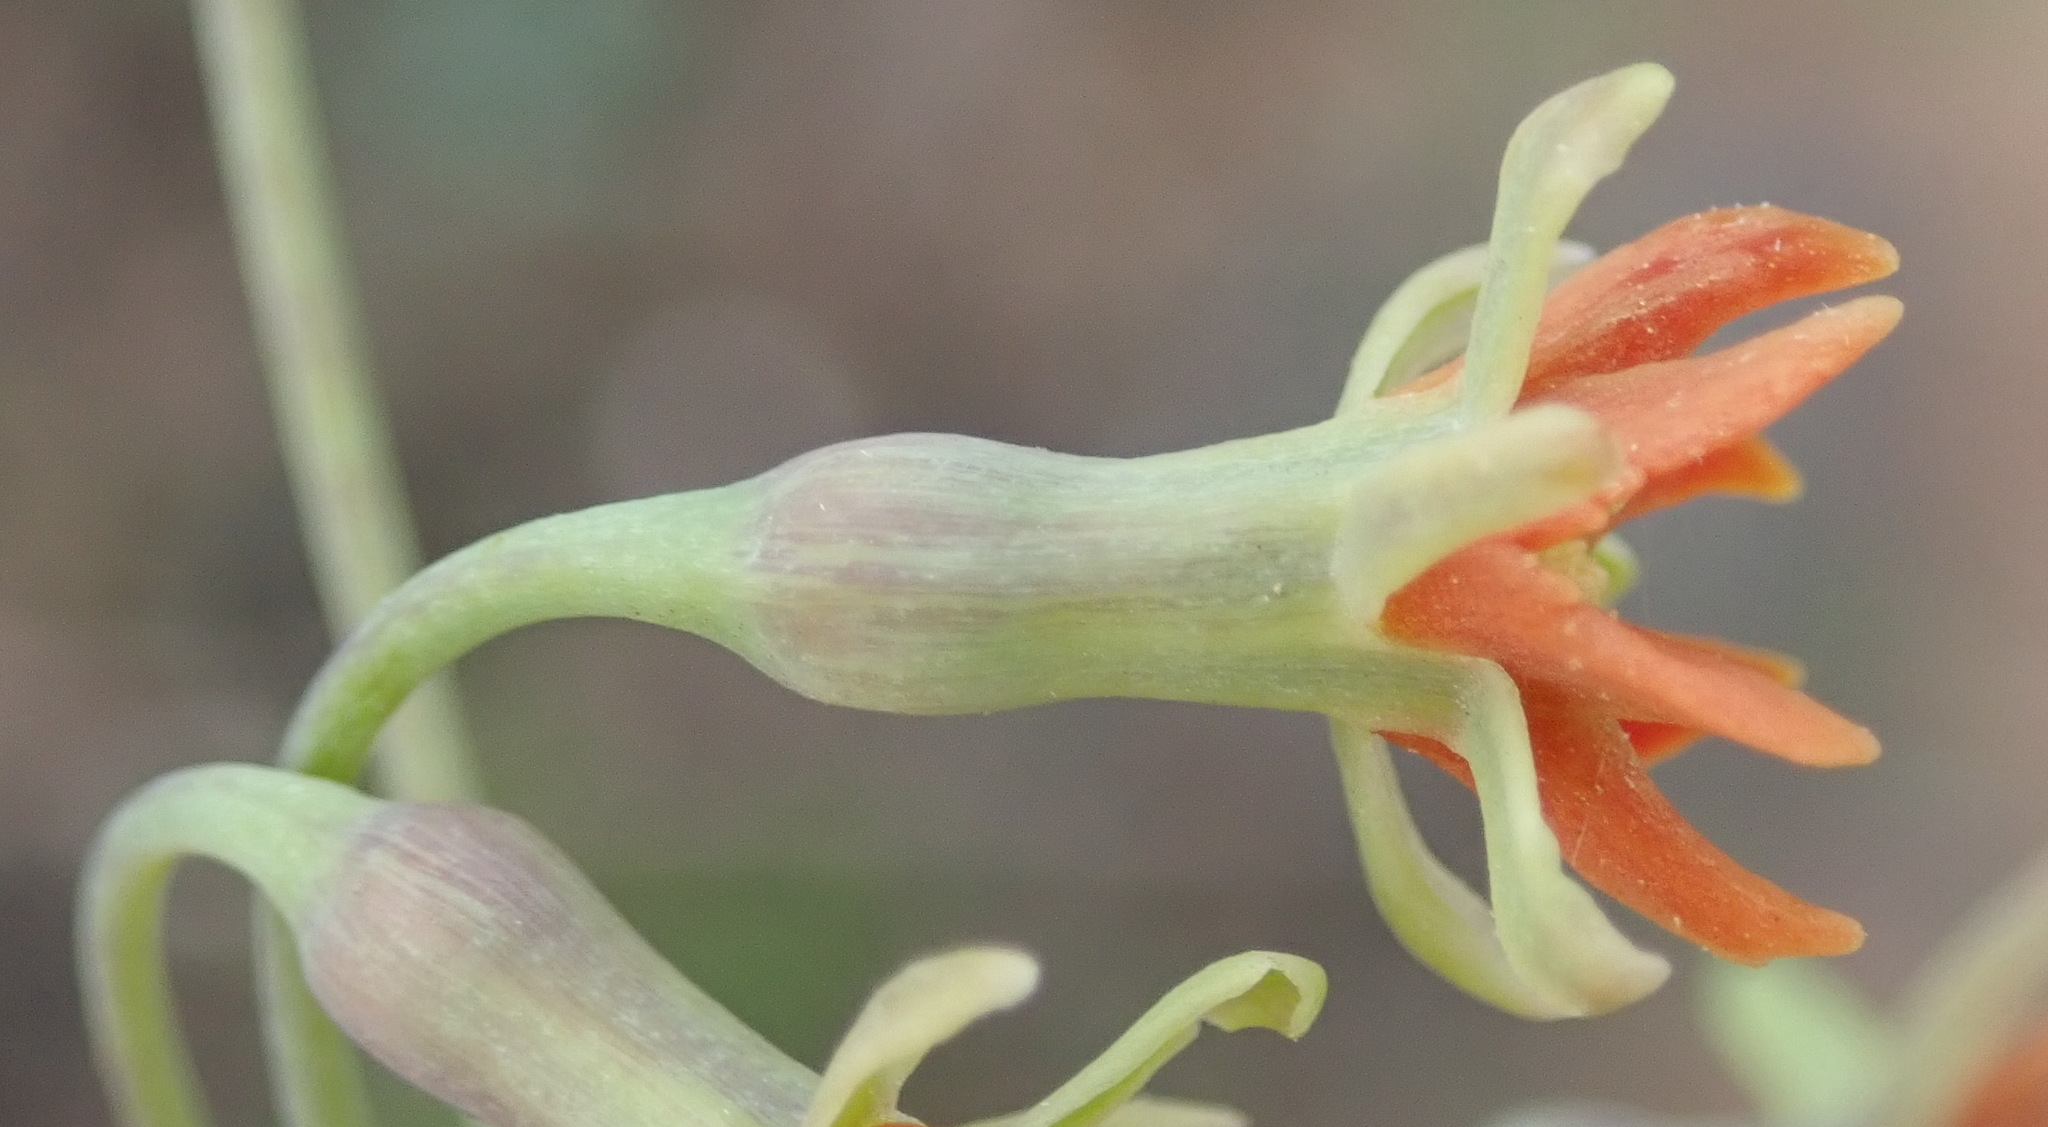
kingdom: Plantae
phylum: Tracheophyta
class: Liliopsida
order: Asparagales
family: Amaryllidaceae
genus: Tulbaghia
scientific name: Tulbaghia capensis
